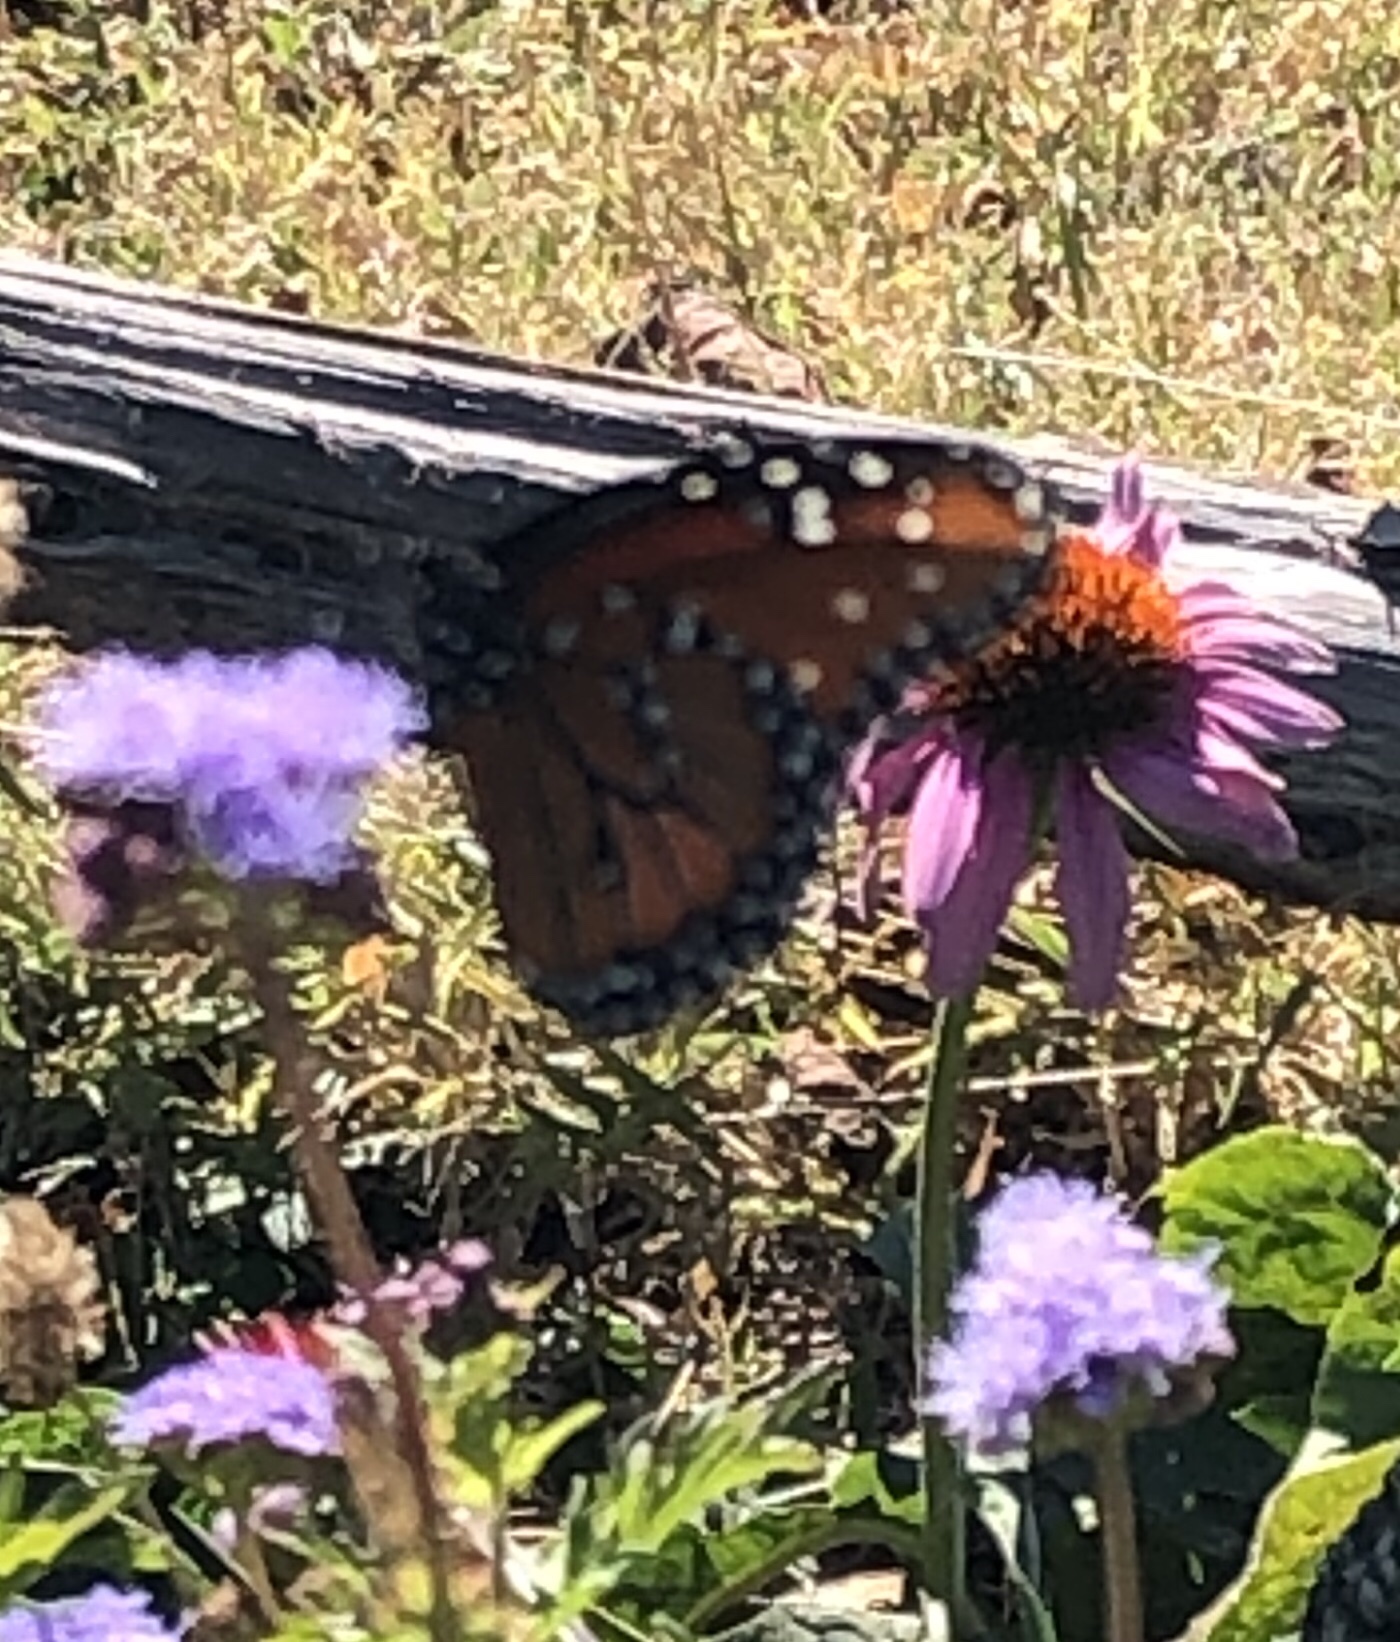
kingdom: Animalia
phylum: Arthropoda
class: Insecta
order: Lepidoptera
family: Nymphalidae
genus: Danaus
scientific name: Danaus gilippus
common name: Queen
